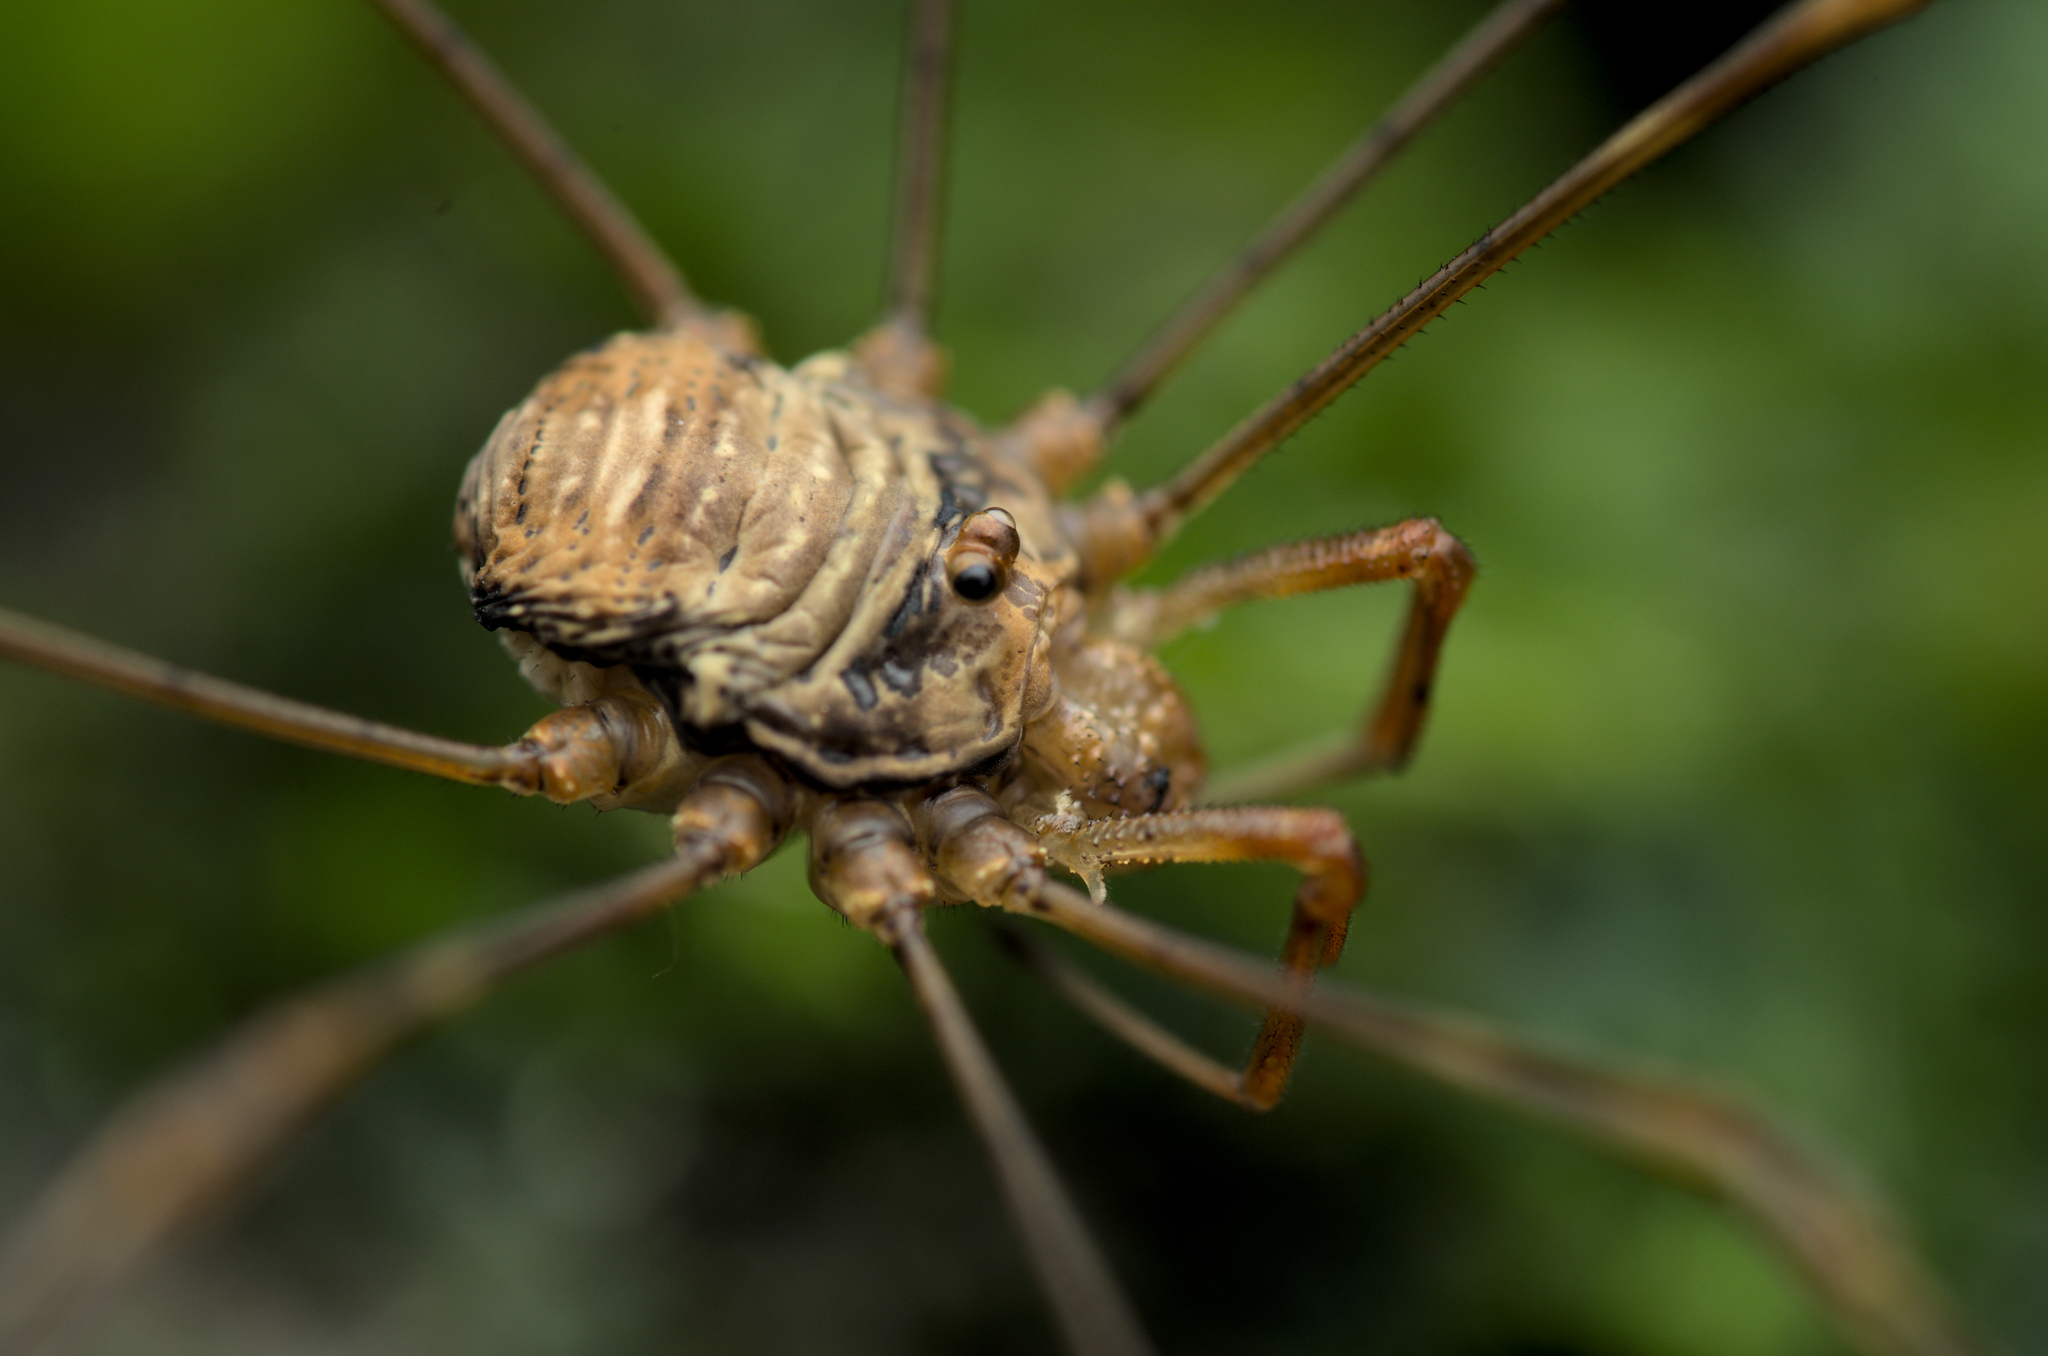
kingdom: Animalia
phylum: Arthropoda
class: Arachnida
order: Opiliones
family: Phalangiidae
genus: Dicranopalpus
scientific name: Dicranopalpus ramosus
